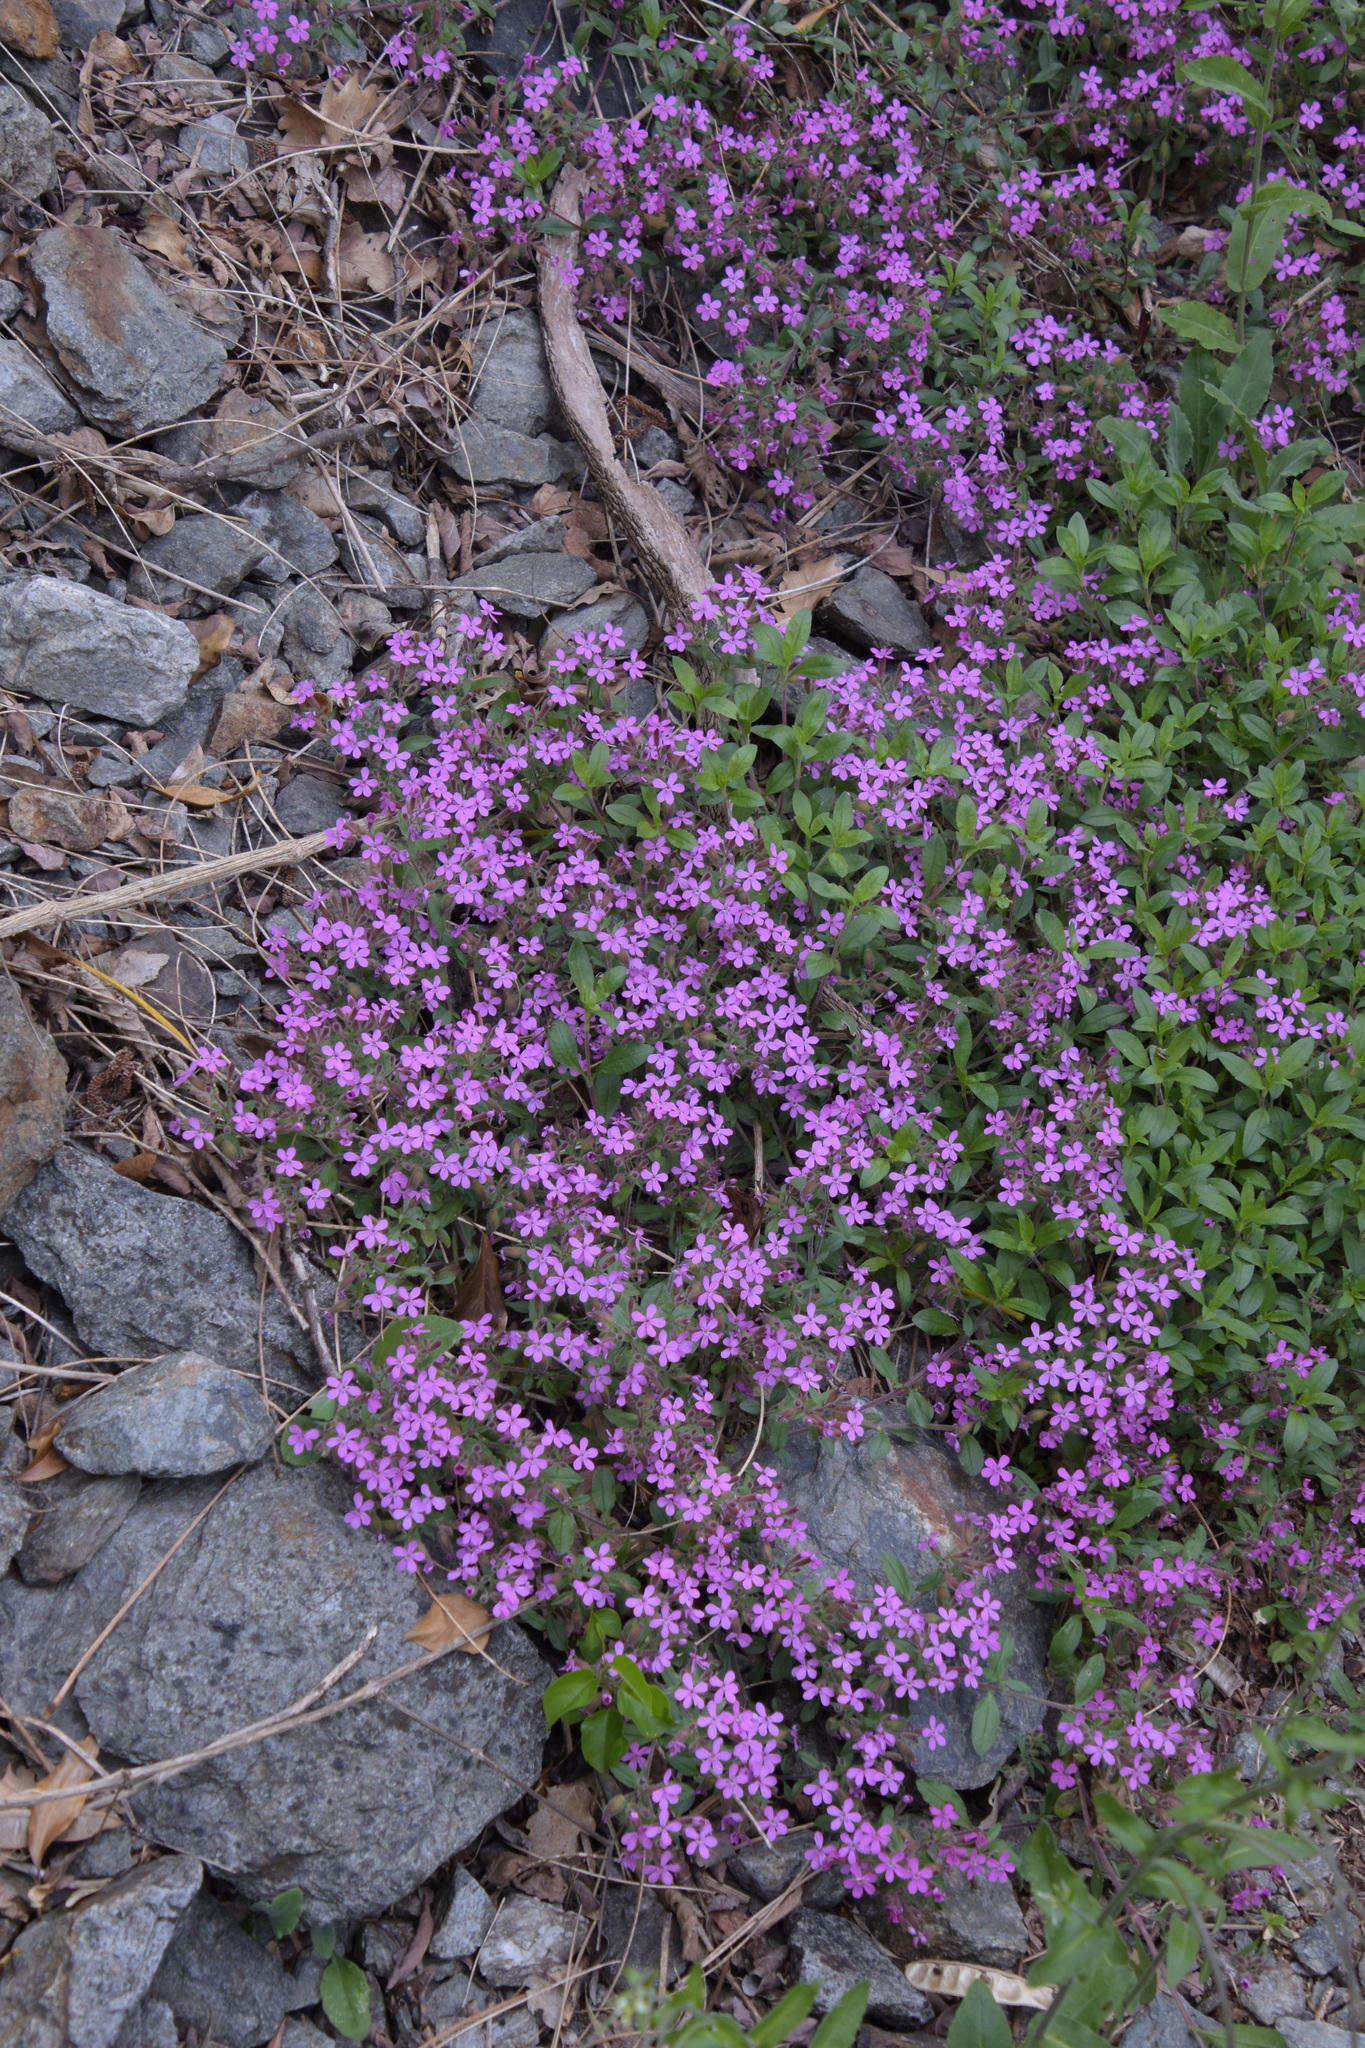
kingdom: Plantae
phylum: Tracheophyta
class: Magnoliopsida
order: Caryophyllales
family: Caryophyllaceae
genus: Saponaria
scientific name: Saponaria ocymoides
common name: Rock soapwort
